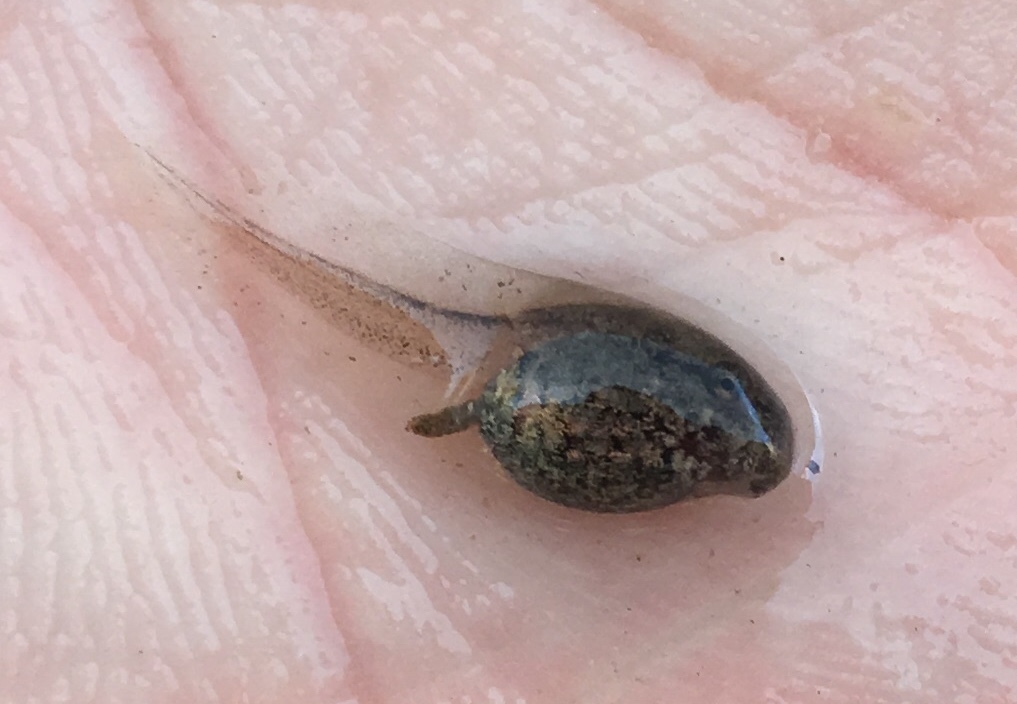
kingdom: Animalia
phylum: Chordata
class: Amphibia
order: Anura
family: Alytidae
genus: Alytes
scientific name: Alytes obstetricans
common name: Midwife toad
